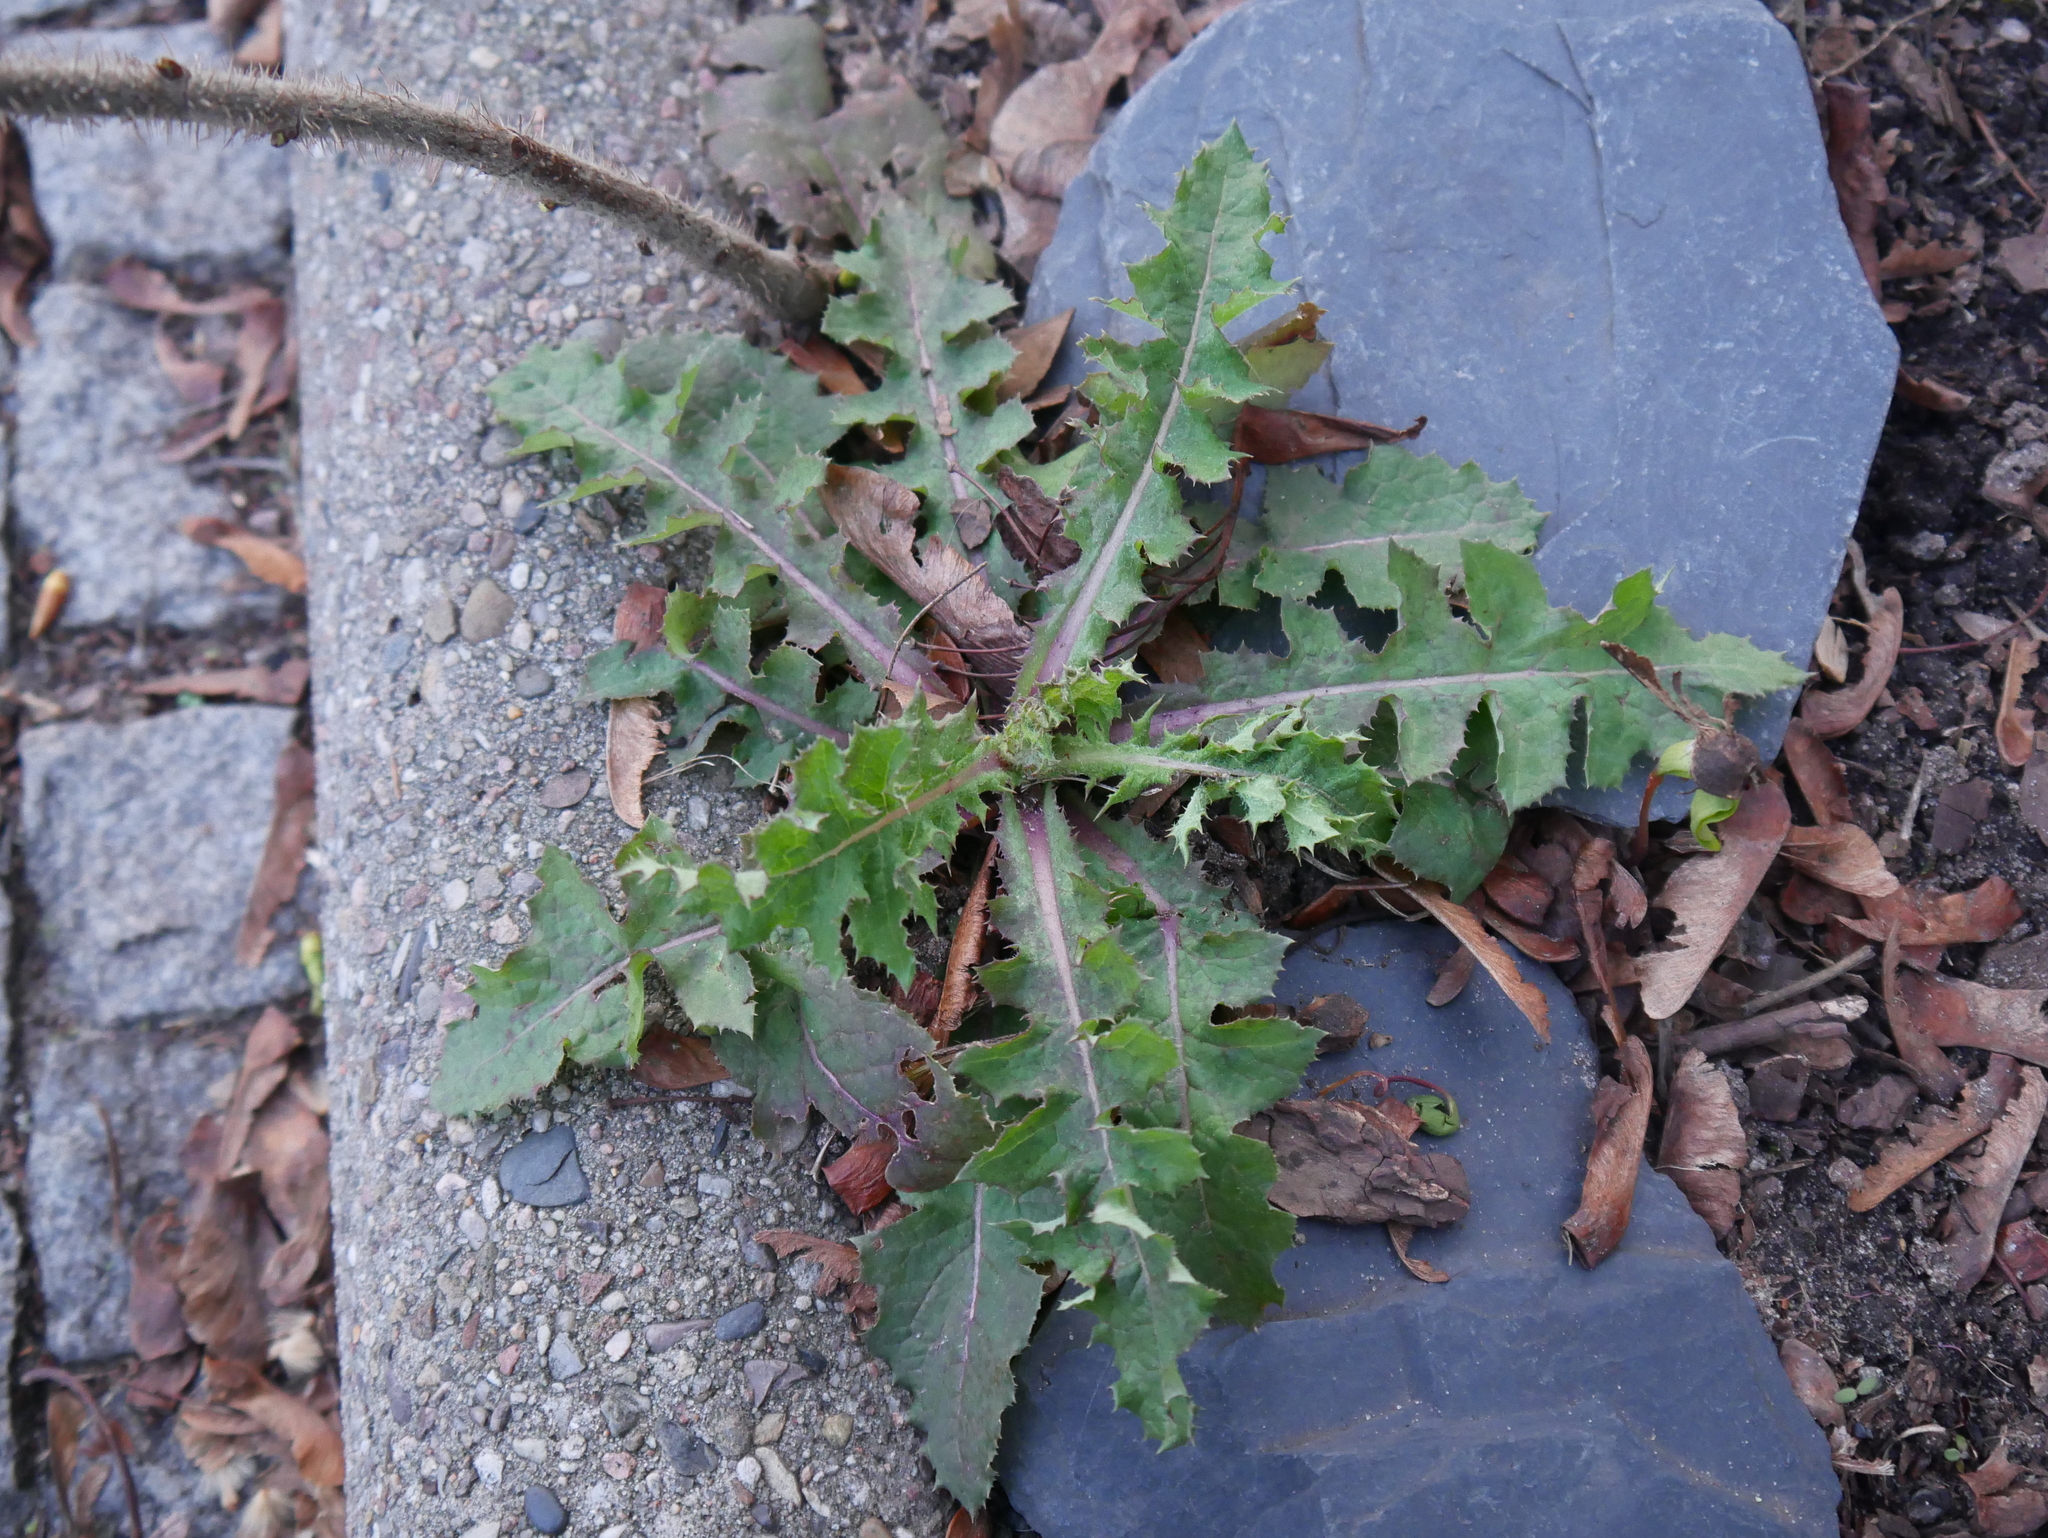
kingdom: Plantae
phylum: Tracheophyta
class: Magnoliopsida
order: Asterales
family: Asteraceae
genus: Sonchus
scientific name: Sonchus oleraceus
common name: Common sowthistle
